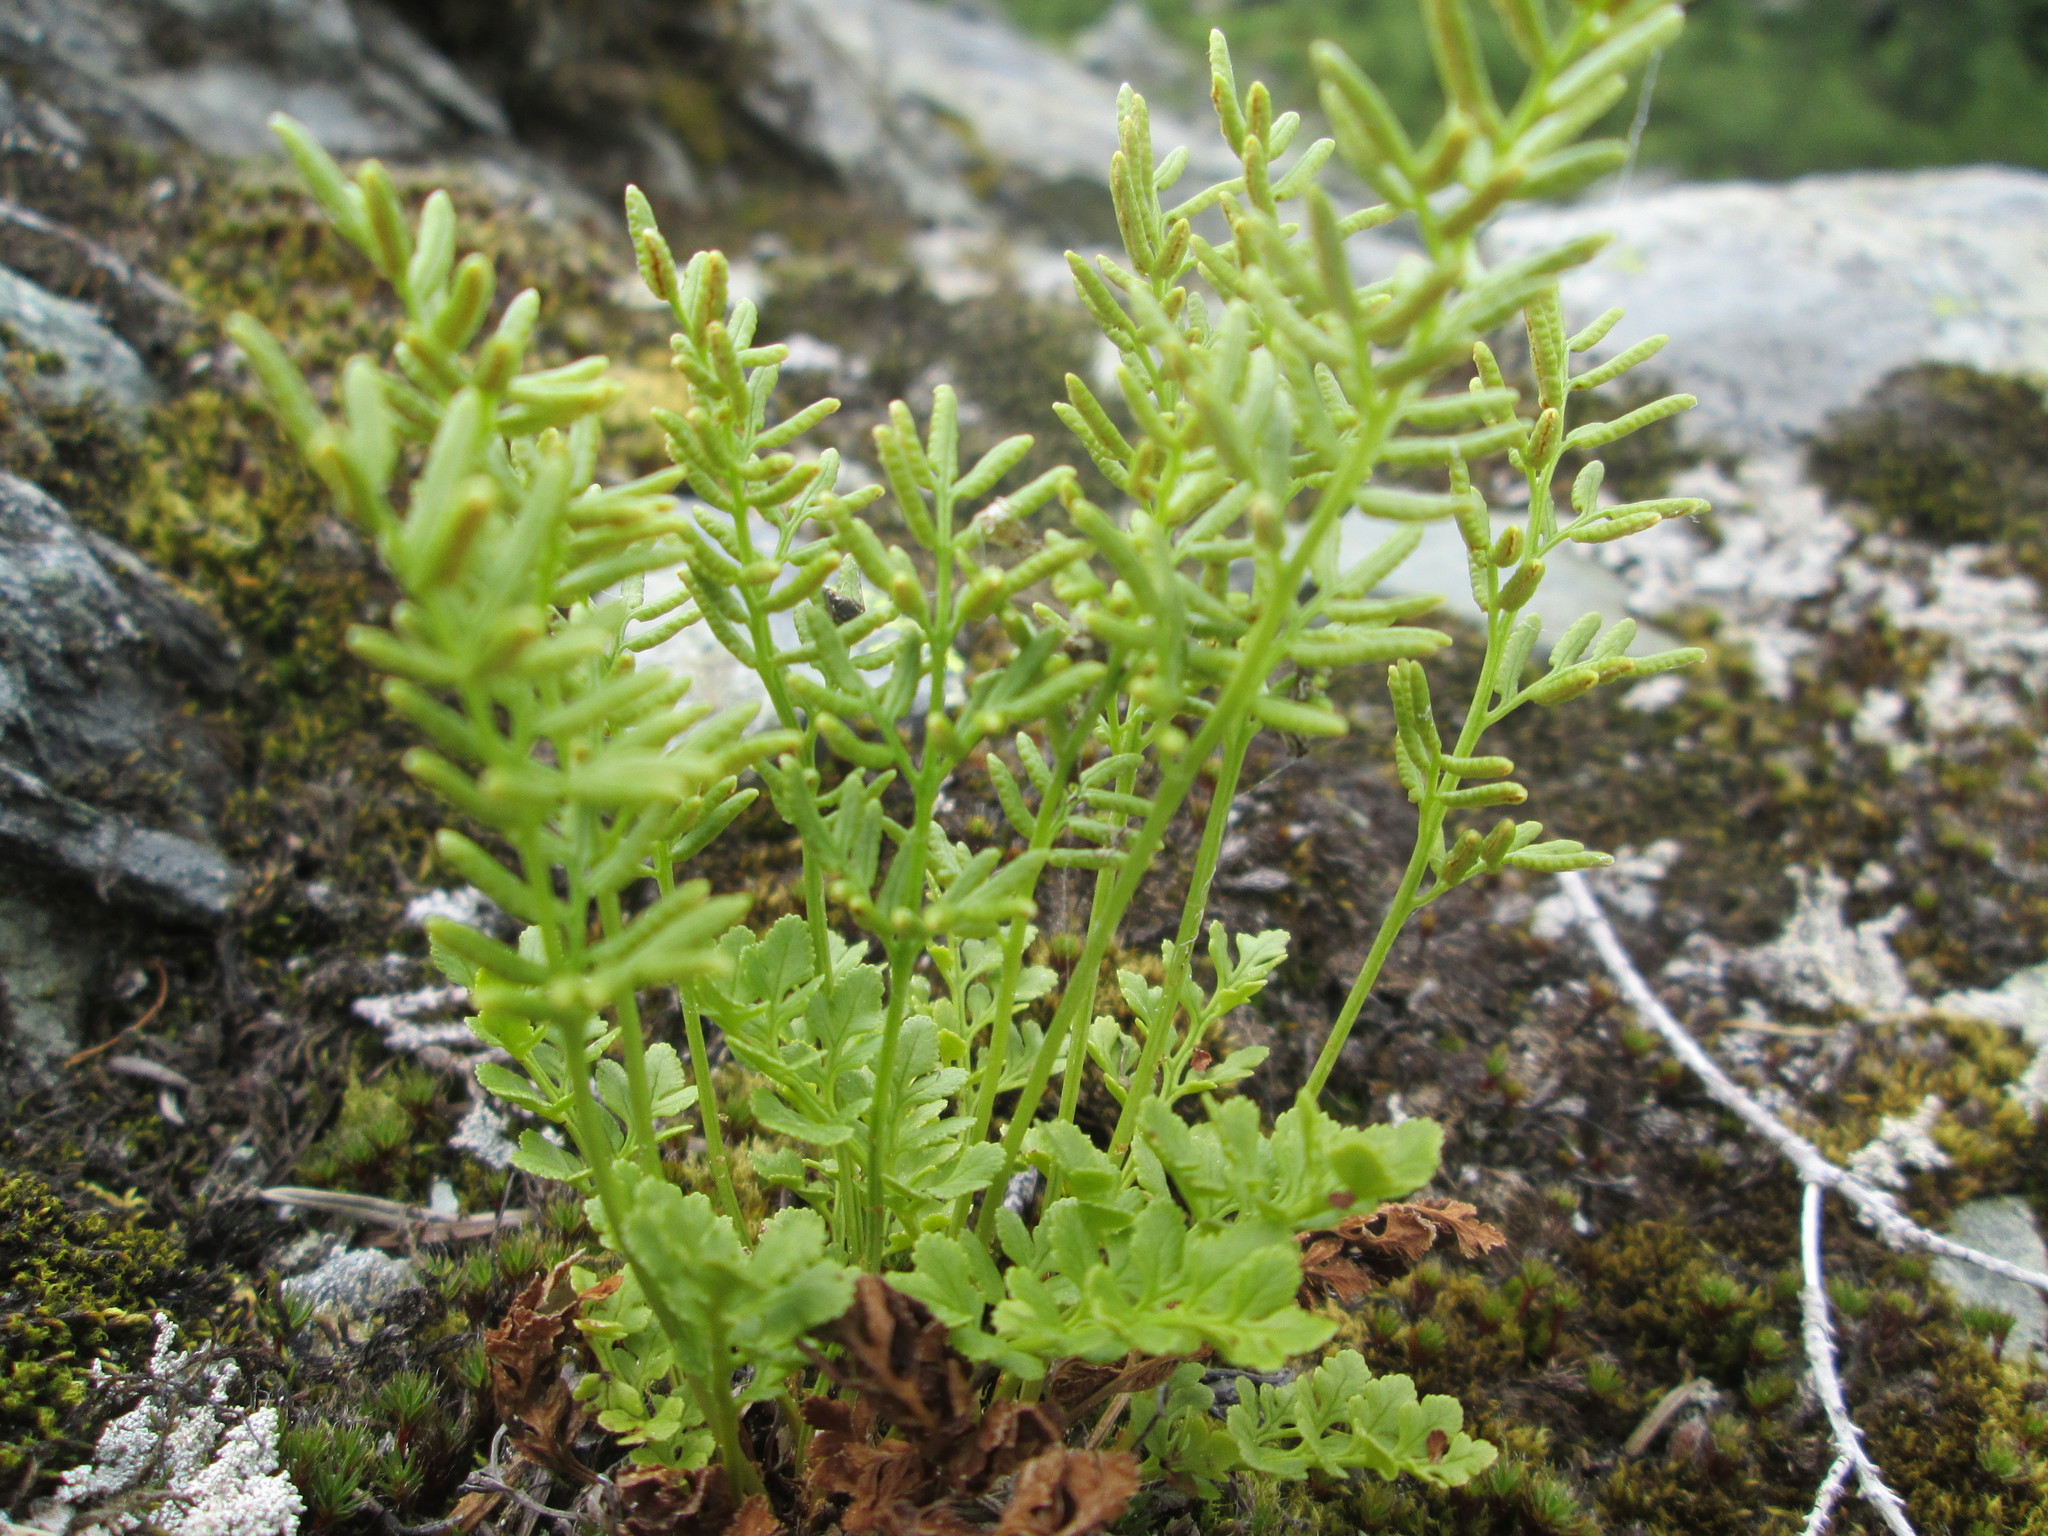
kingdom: Plantae
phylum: Tracheophyta
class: Polypodiopsida
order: Polypodiales
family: Pteridaceae
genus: Cryptogramma
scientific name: Cryptogramma acrostichoides
